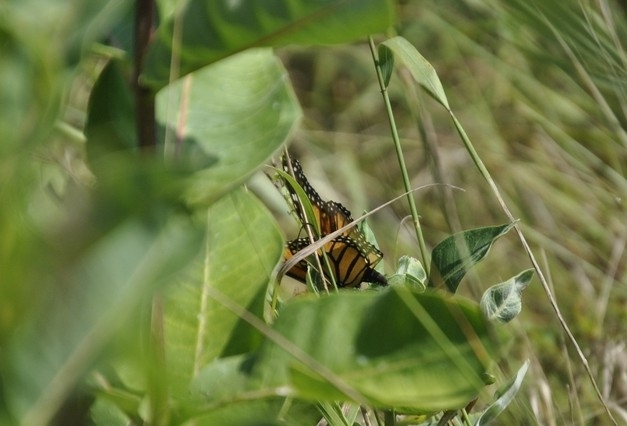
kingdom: Animalia
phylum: Arthropoda
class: Insecta
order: Lepidoptera
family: Nymphalidae
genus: Danaus
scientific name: Danaus plexippus
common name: Monarch
